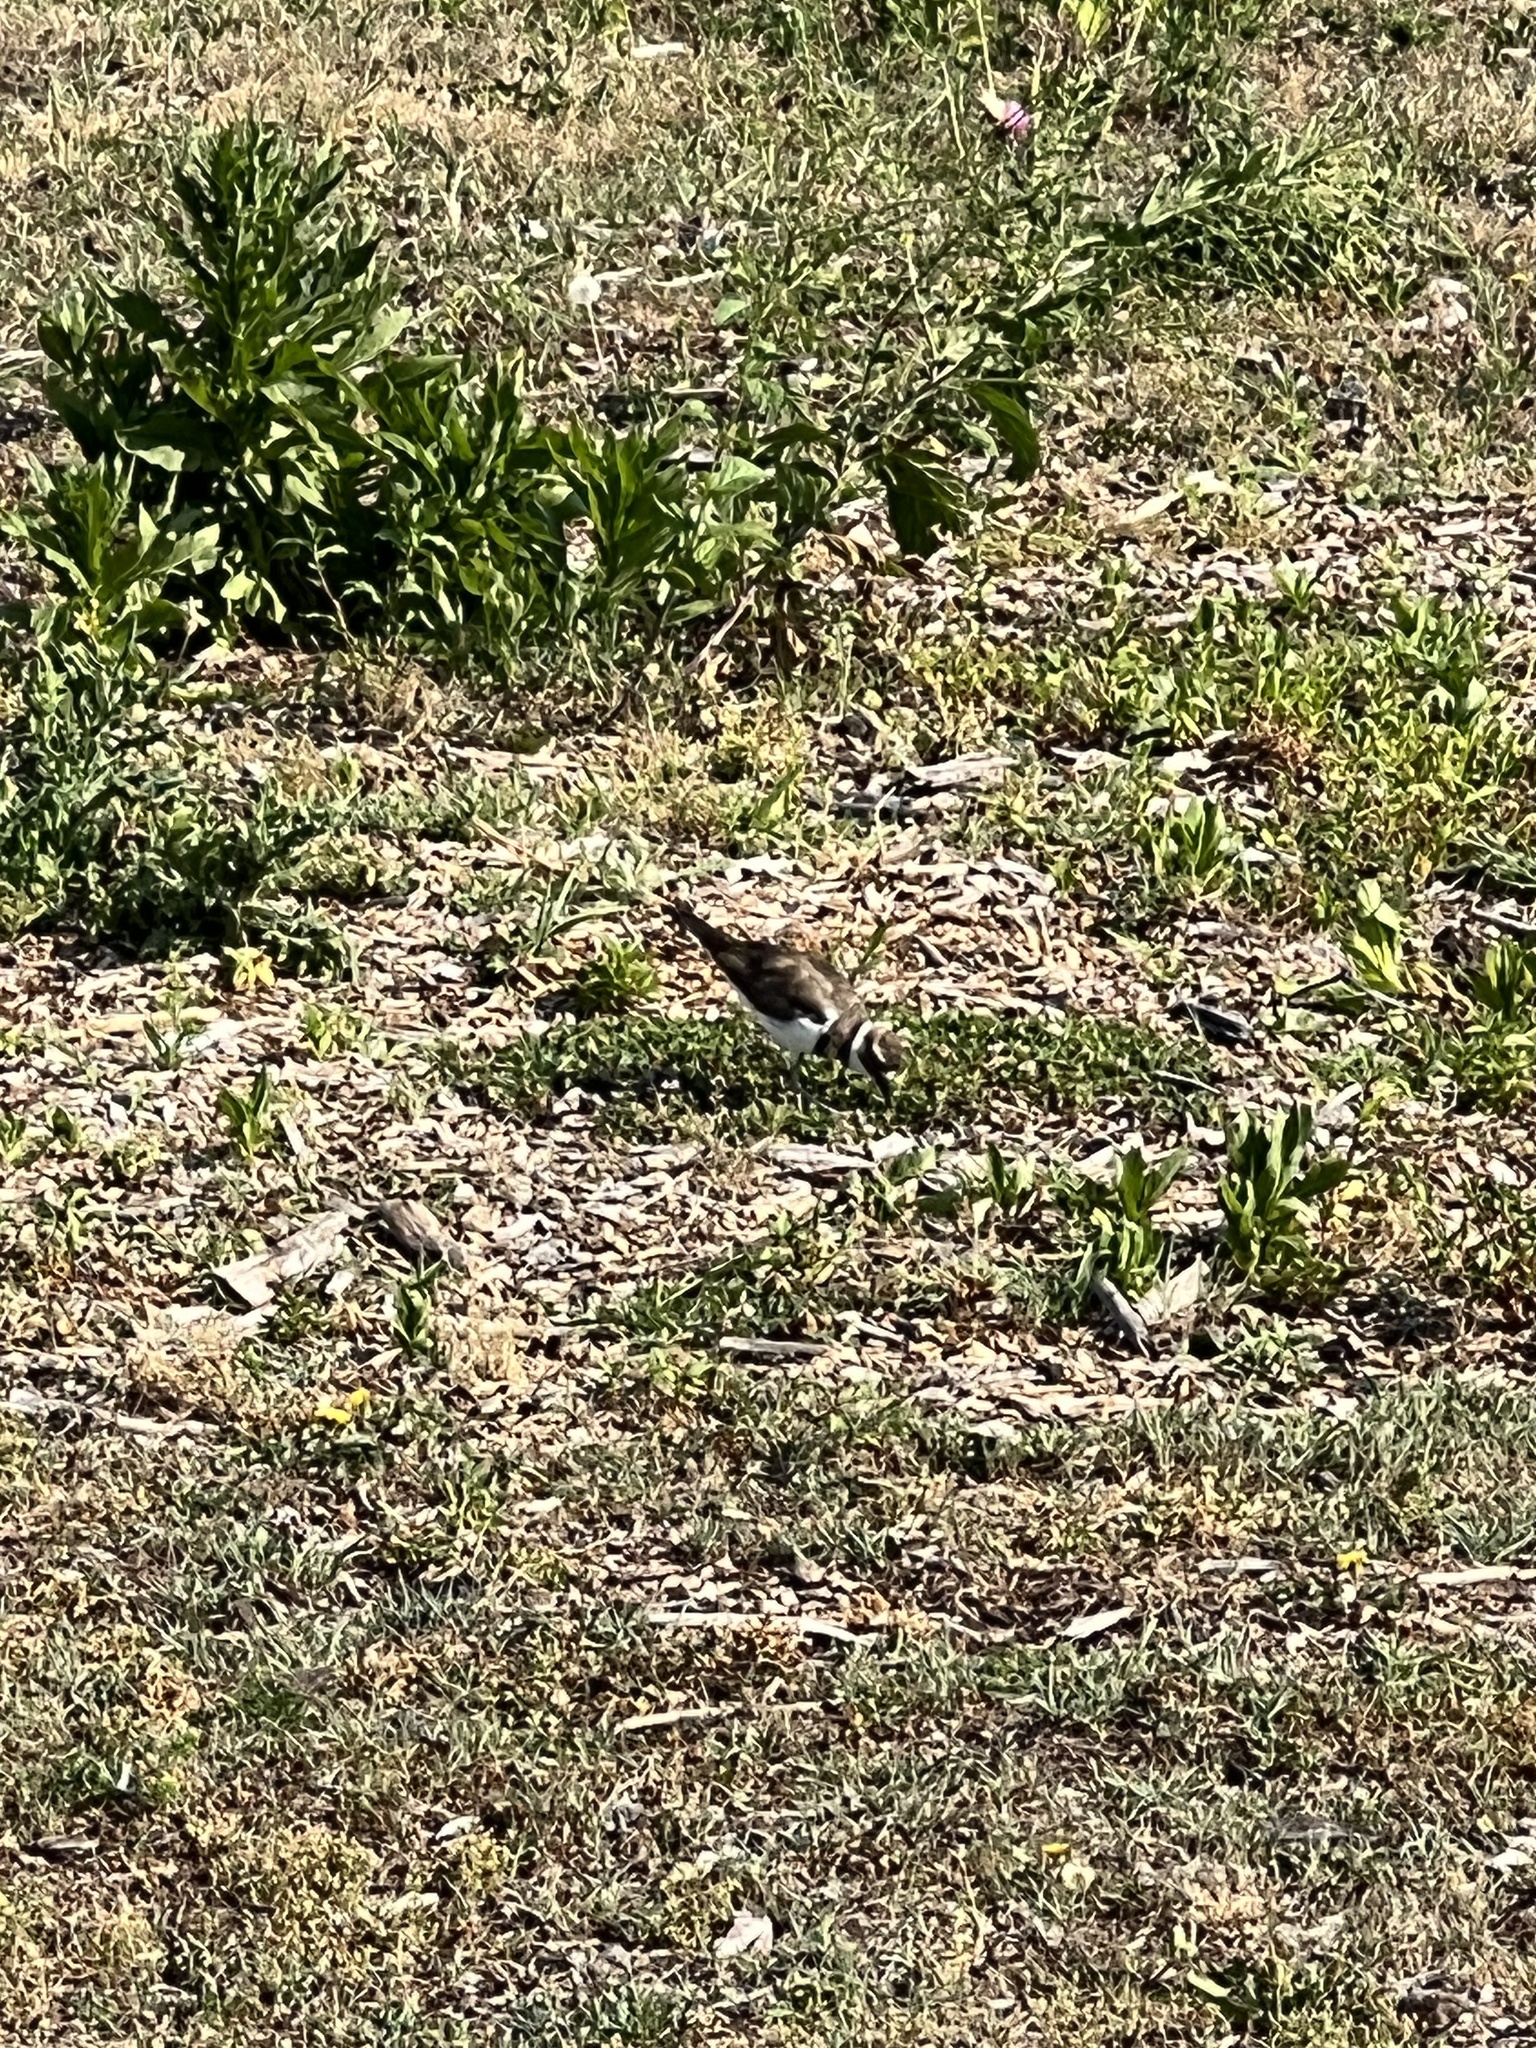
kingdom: Animalia
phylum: Chordata
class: Aves
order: Charadriiformes
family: Charadriidae
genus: Charadrius
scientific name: Charadrius vociferus
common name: Killdeer
